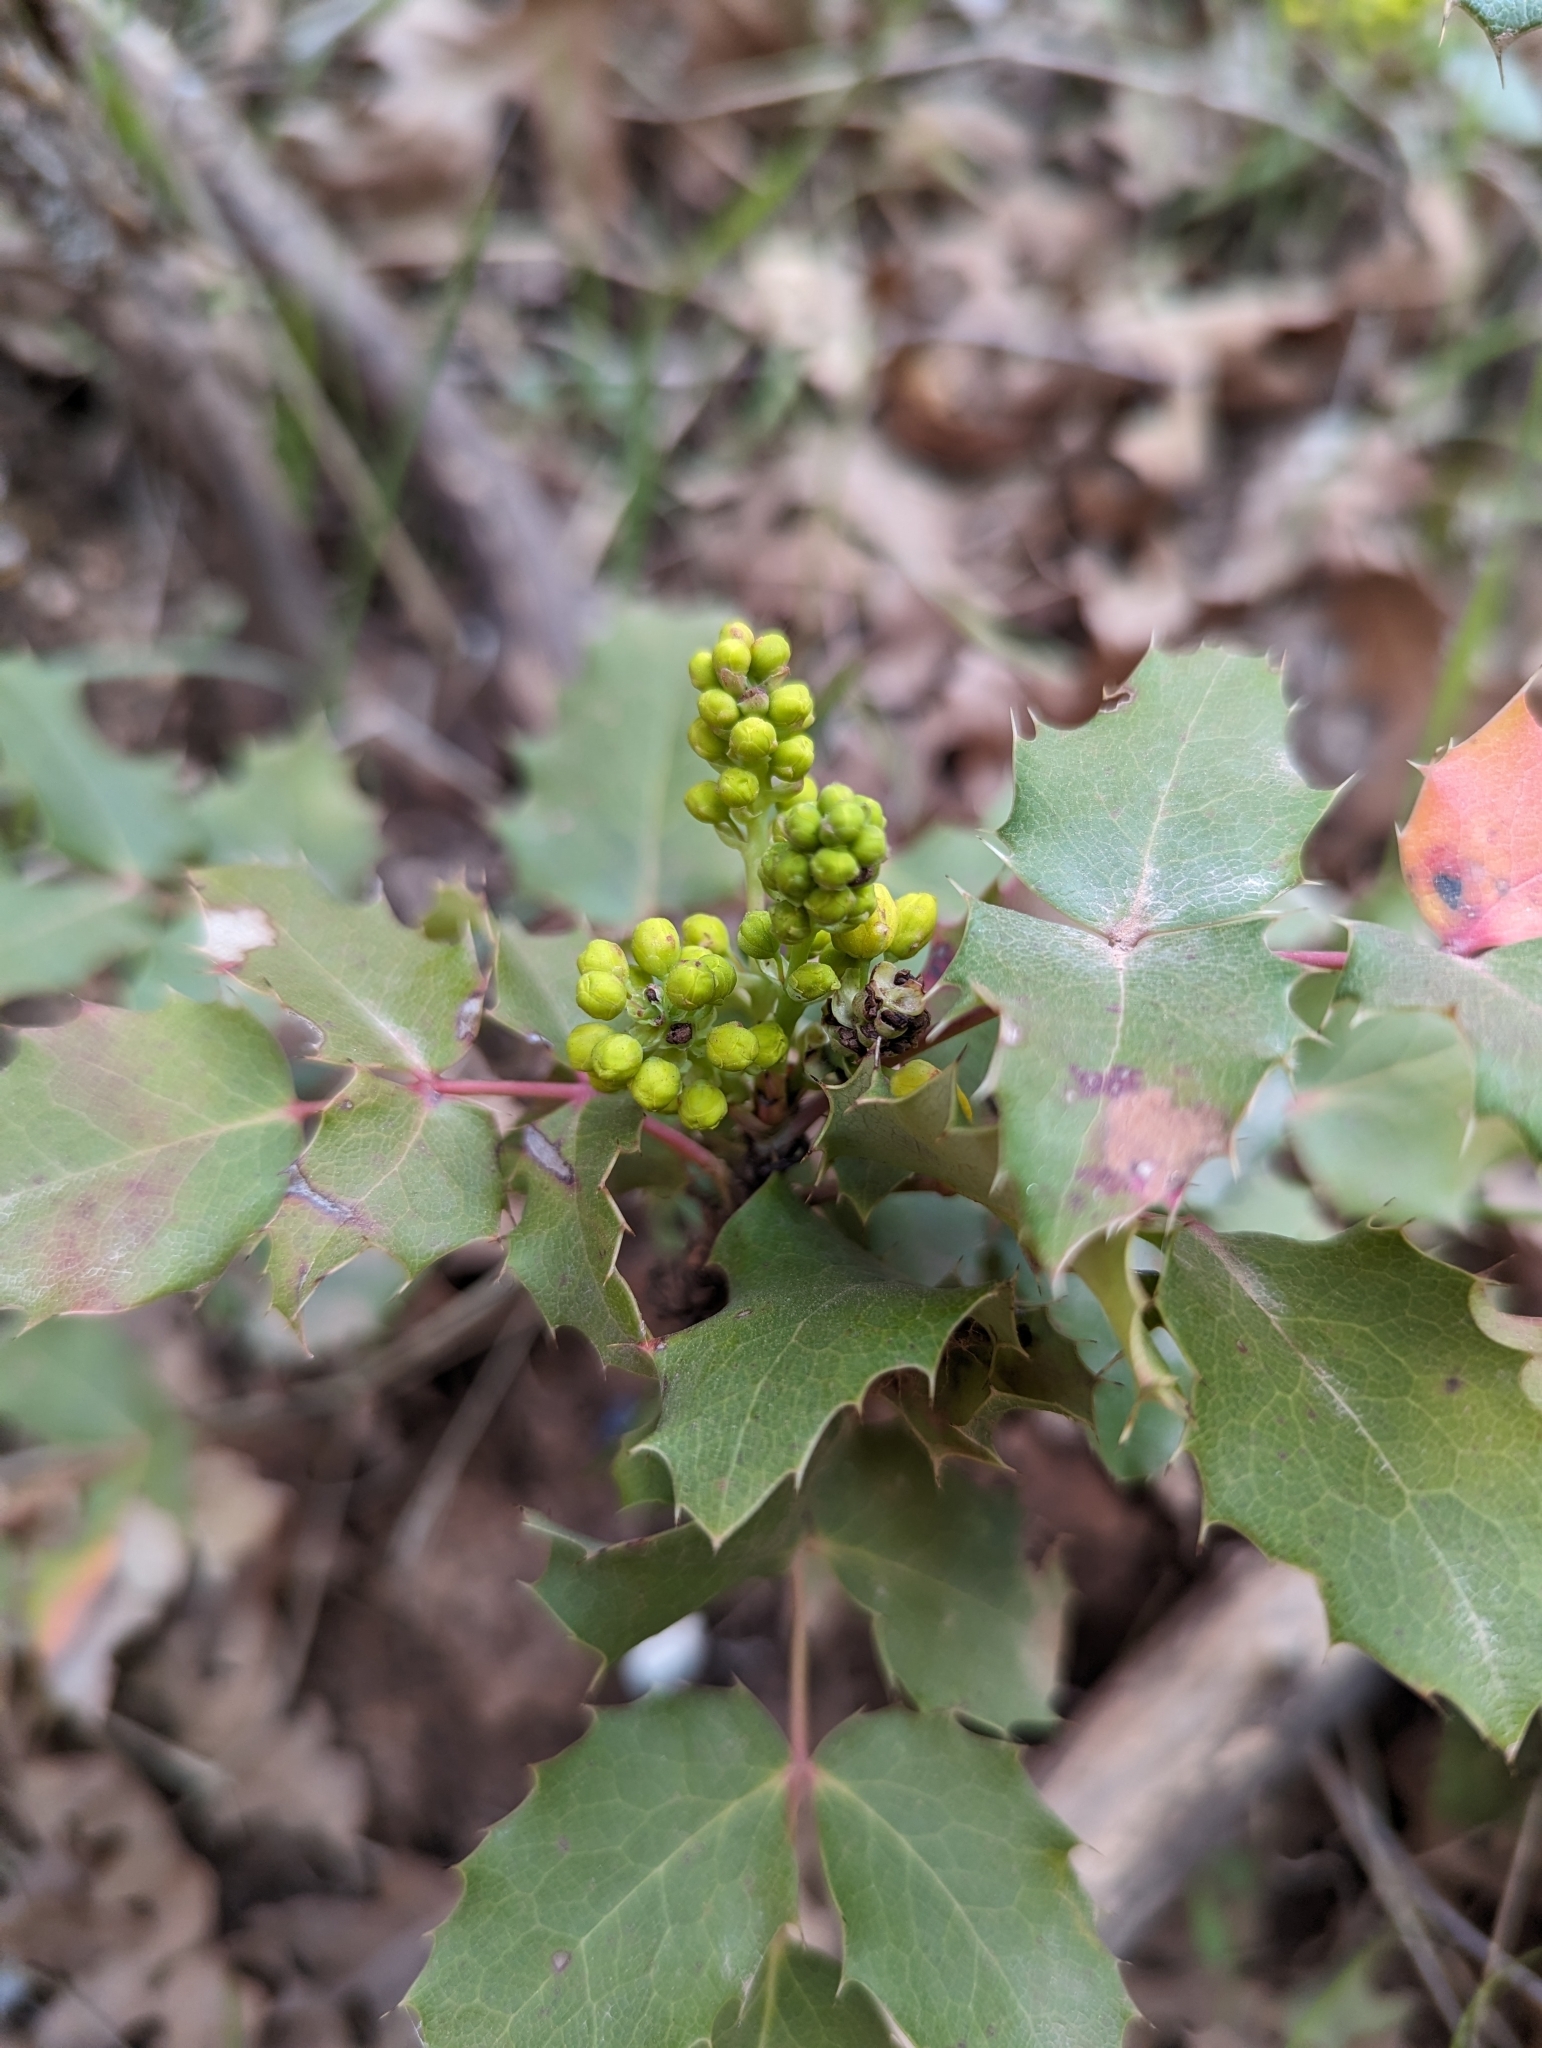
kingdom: Plantae
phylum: Tracheophyta
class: Magnoliopsida
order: Ranunculales
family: Berberidaceae
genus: Mahonia
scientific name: Mahonia repens
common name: Creeping oregon-grape
